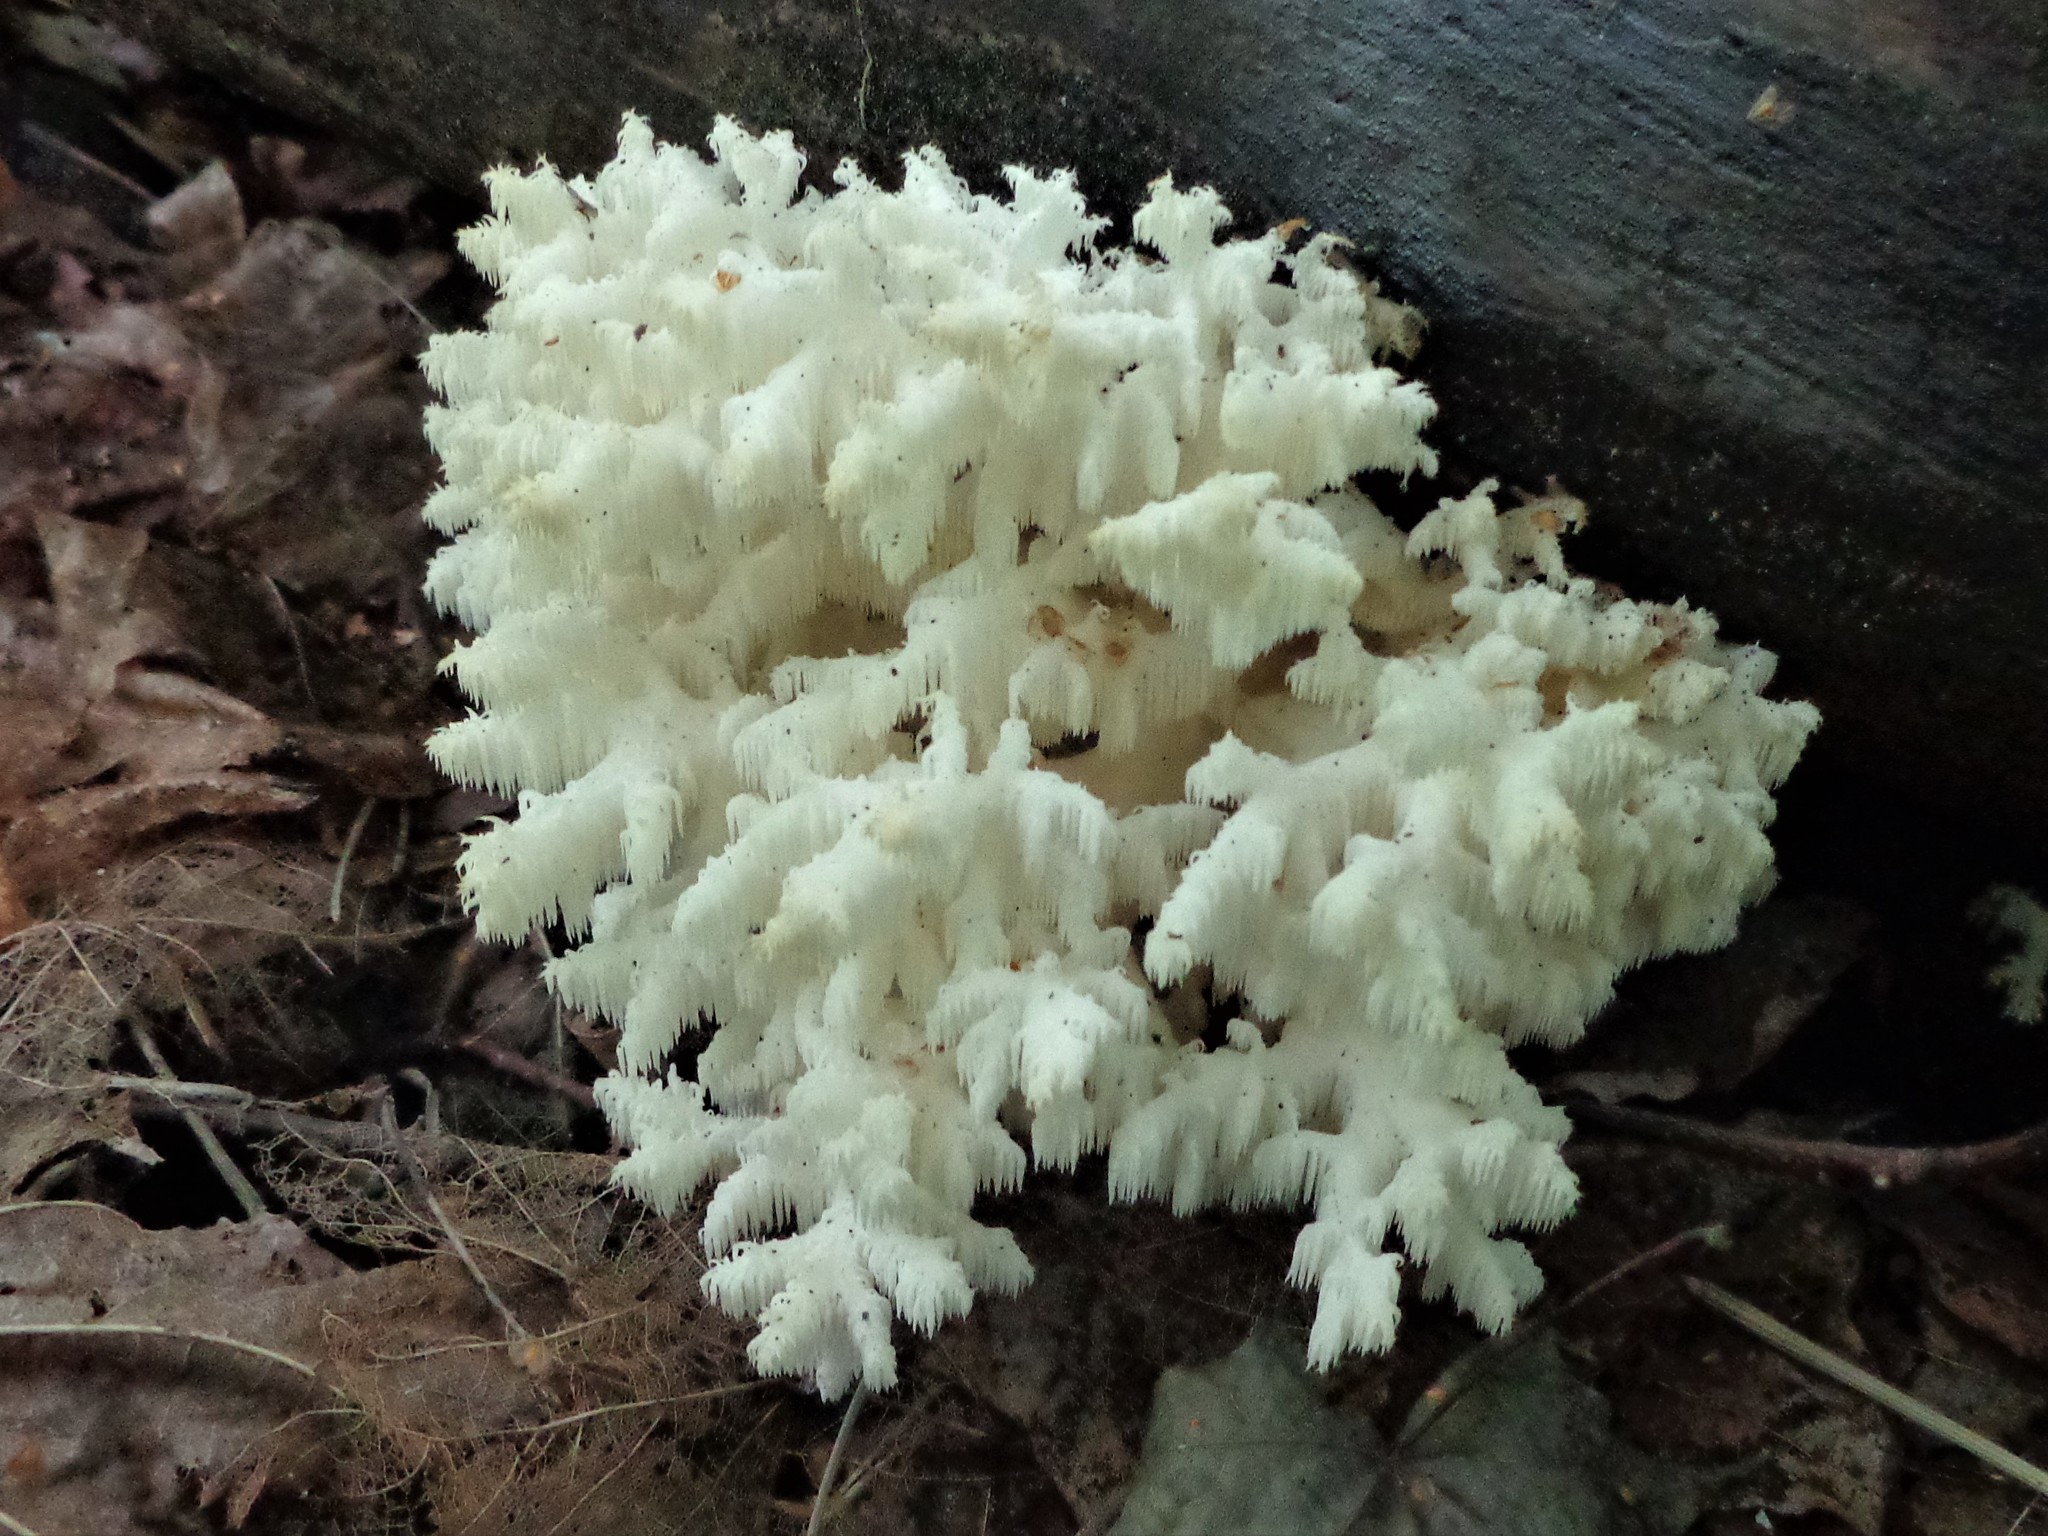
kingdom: Fungi
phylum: Basidiomycota
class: Agaricomycetes
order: Russulales
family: Hericiaceae
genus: Hericium
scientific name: Hericium coralloides
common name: Coral tooth
